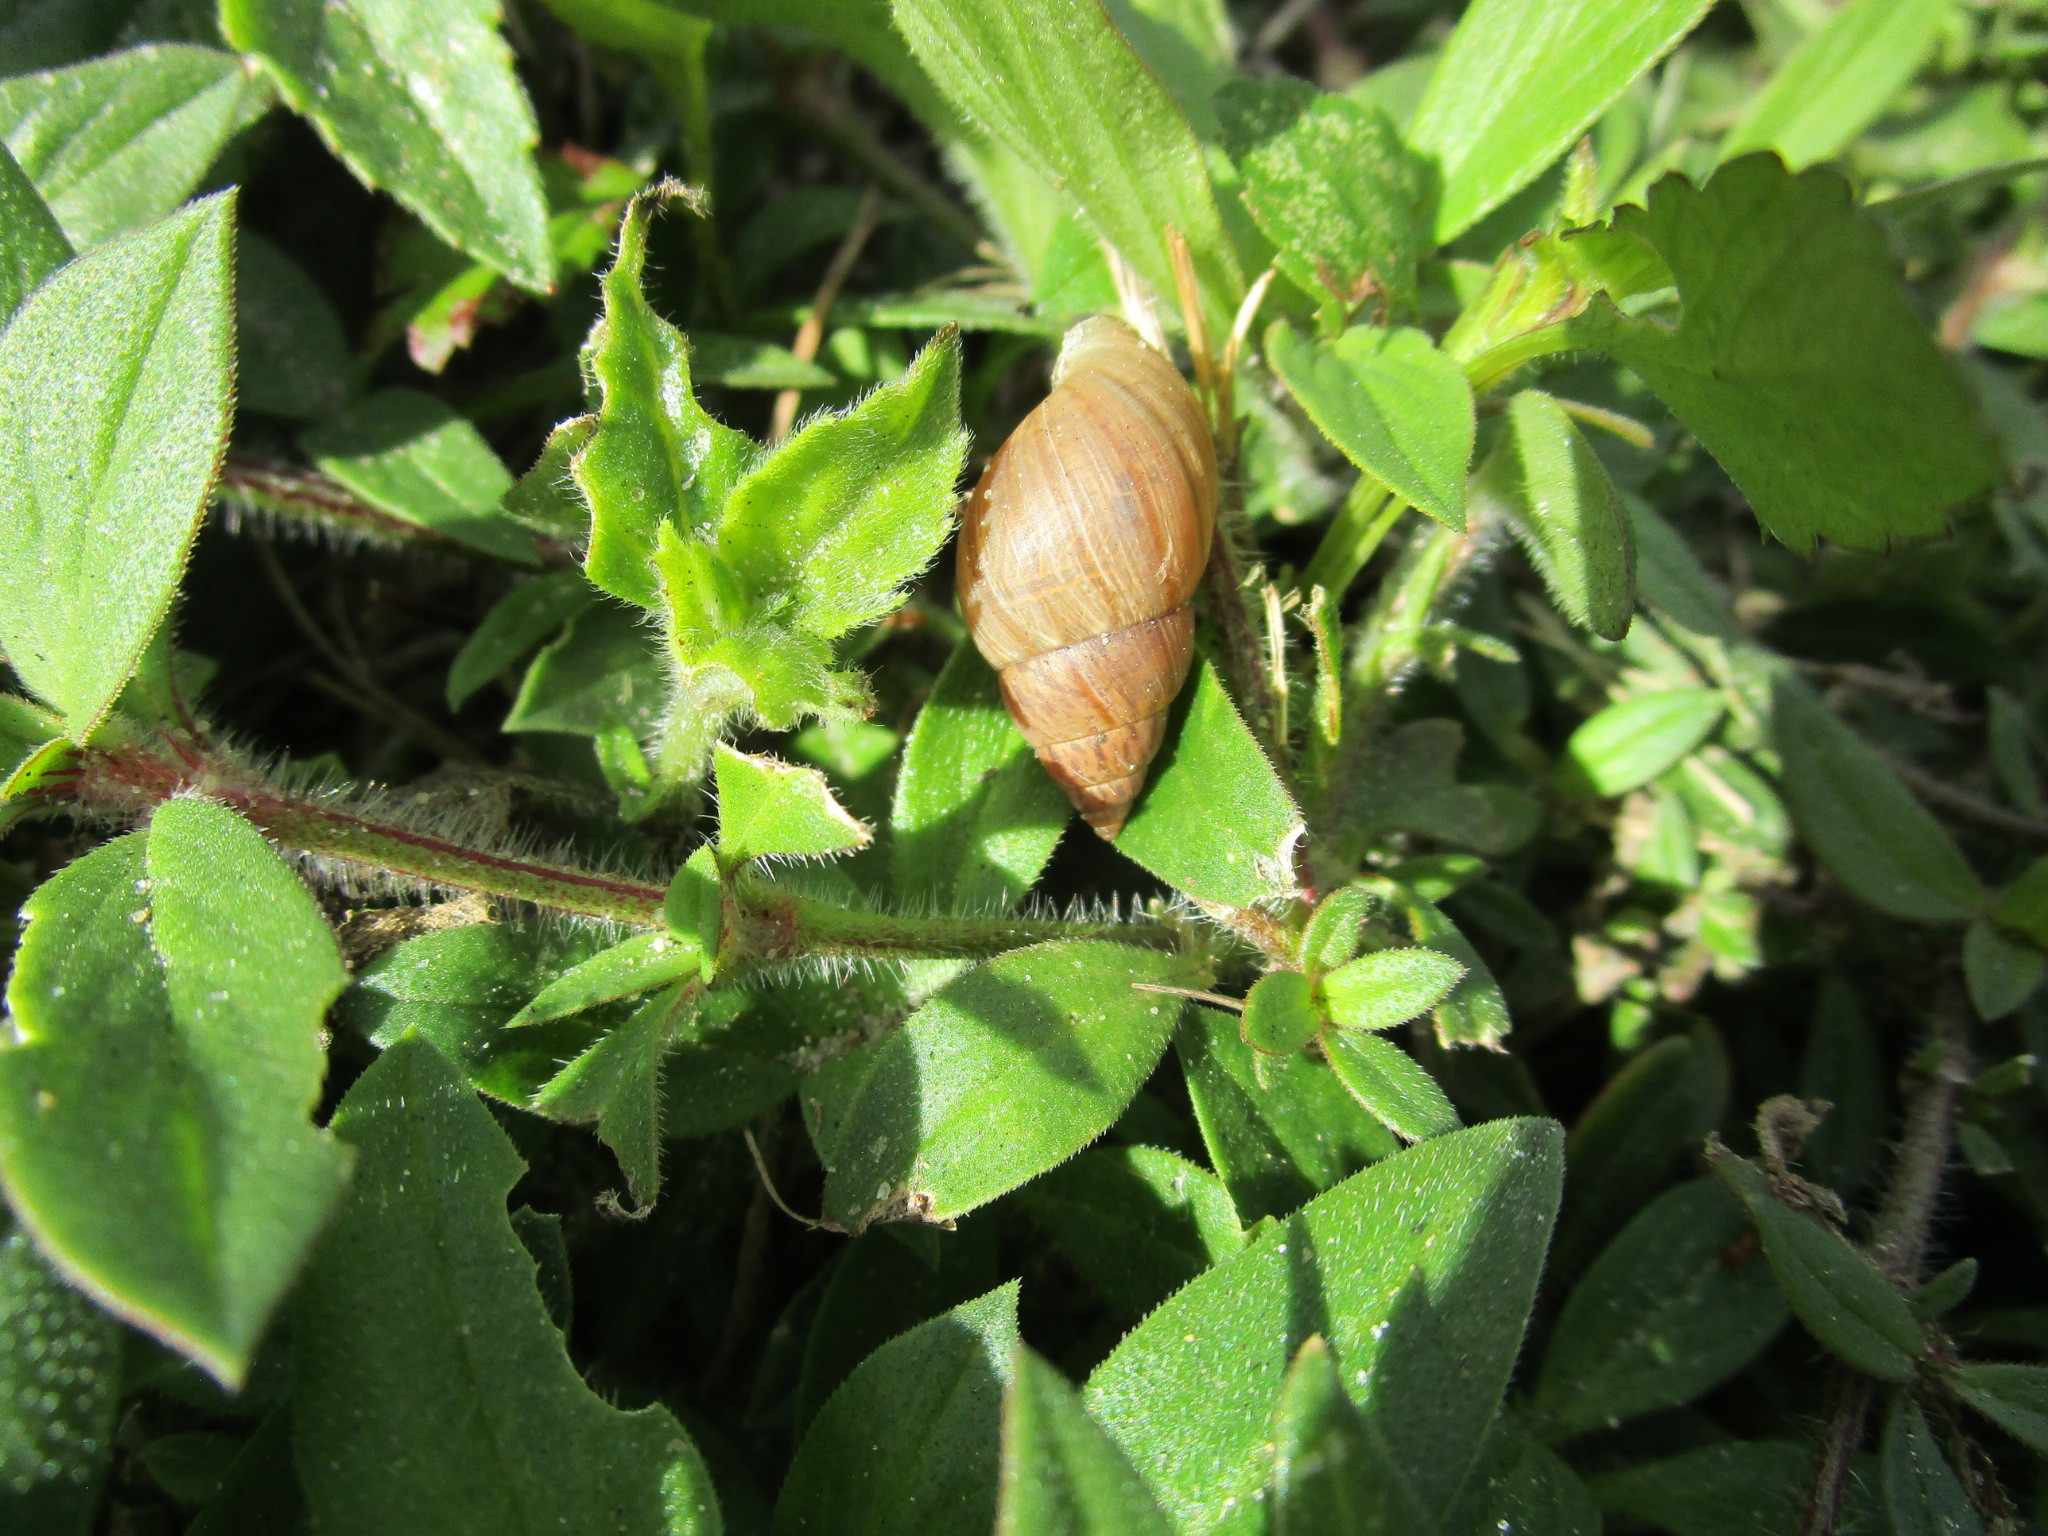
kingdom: Animalia
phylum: Mollusca
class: Gastropoda
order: Stylommatophora
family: Bulimulidae
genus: Bulimulus
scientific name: Bulimulus bonariensis
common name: Snail
